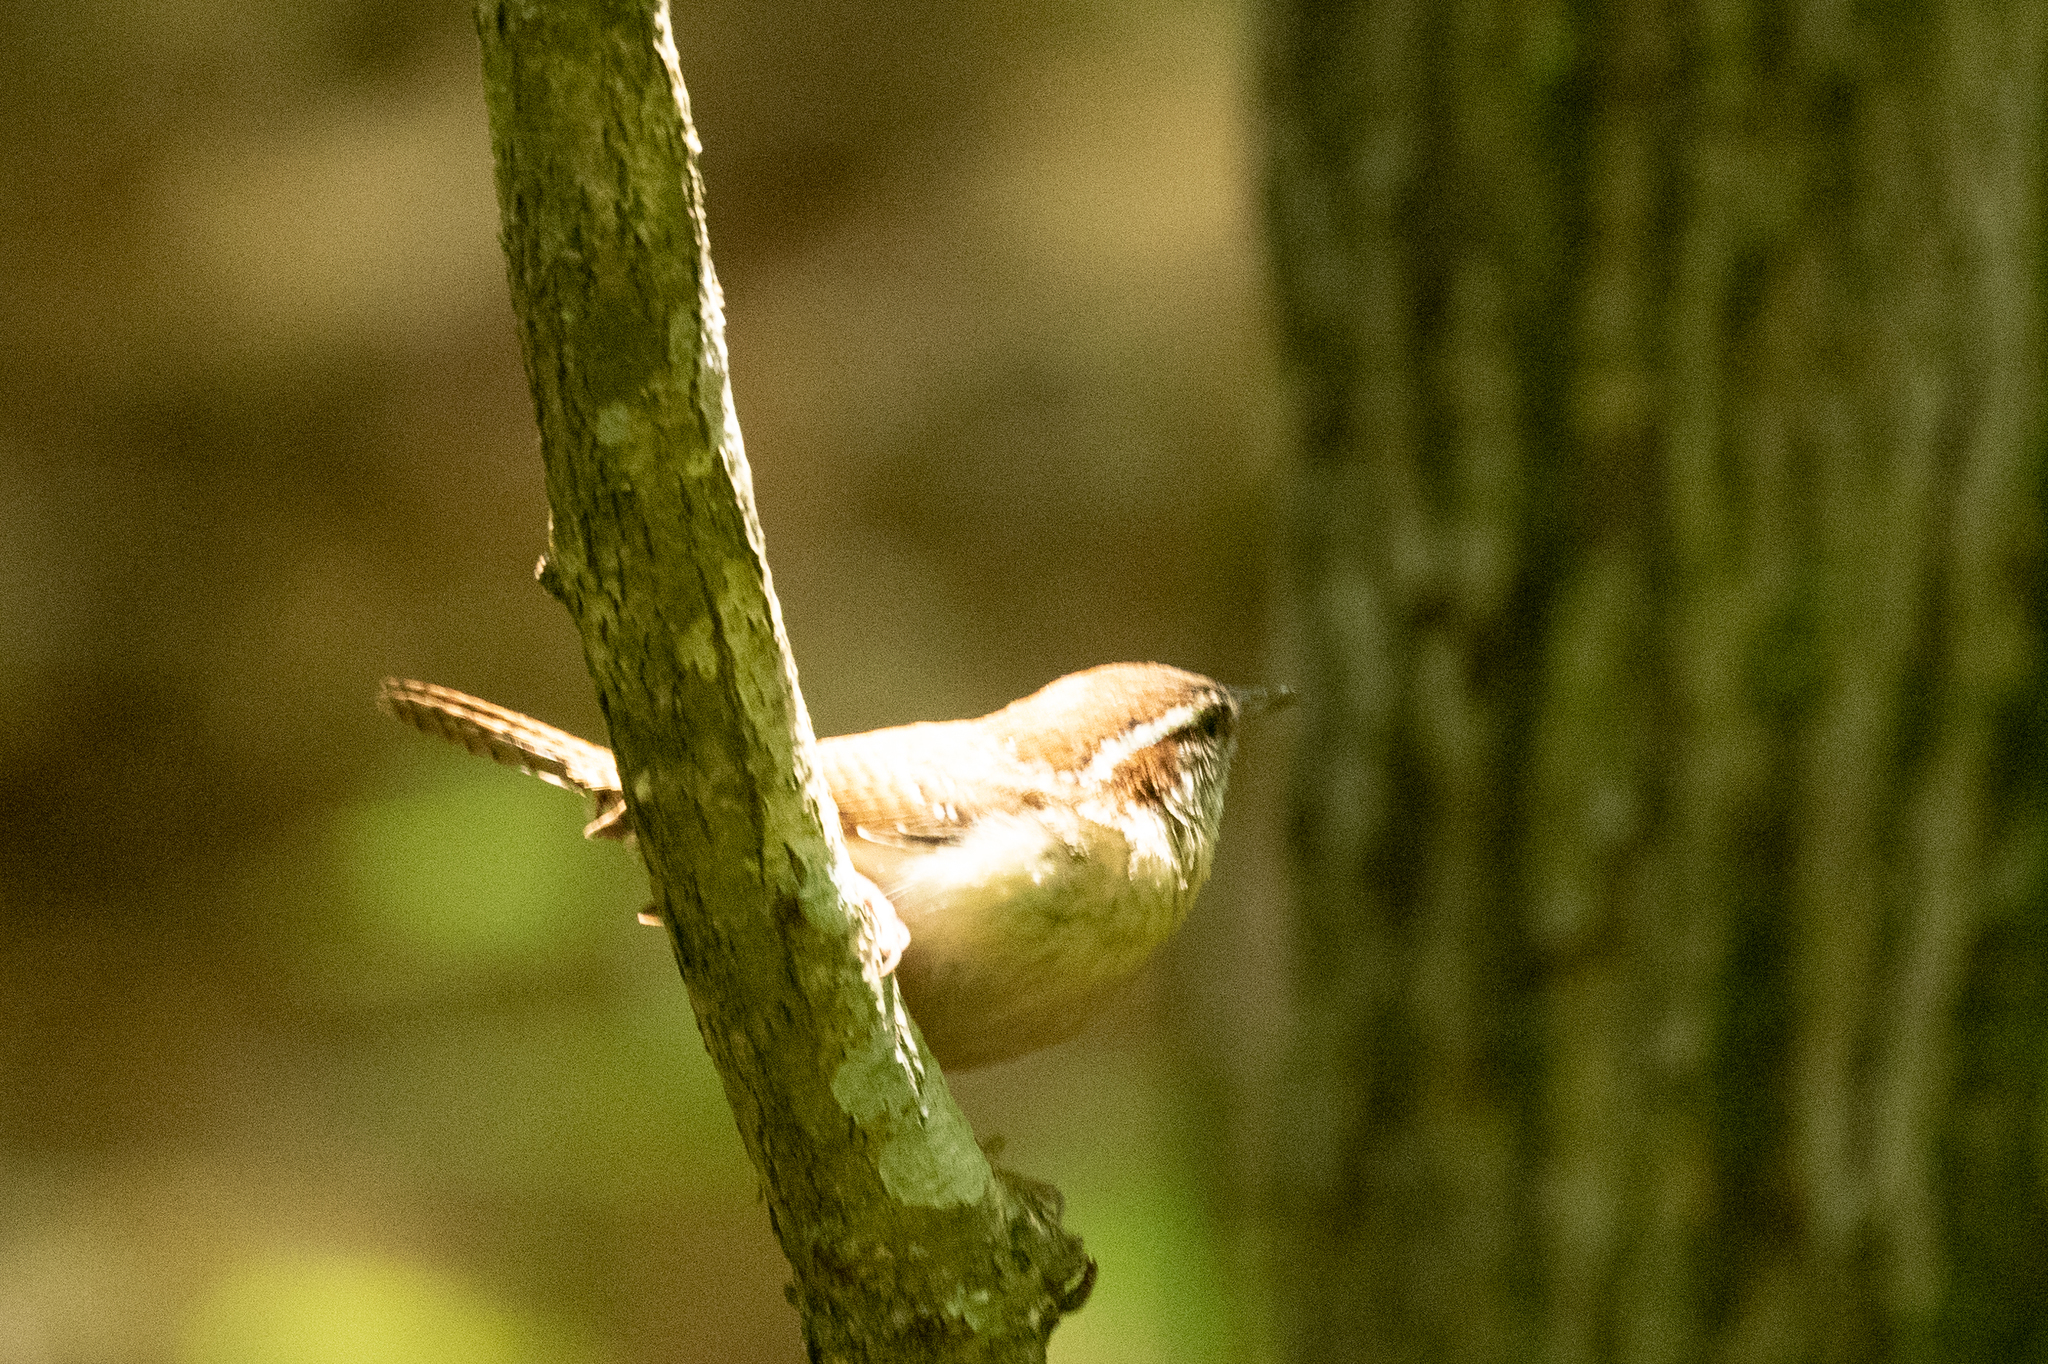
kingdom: Animalia
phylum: Chordata
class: Aves
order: Passeriformes
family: Troglodytidae
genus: Thryothorus
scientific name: Thryothorus ludovicianus
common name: Carolina wren
